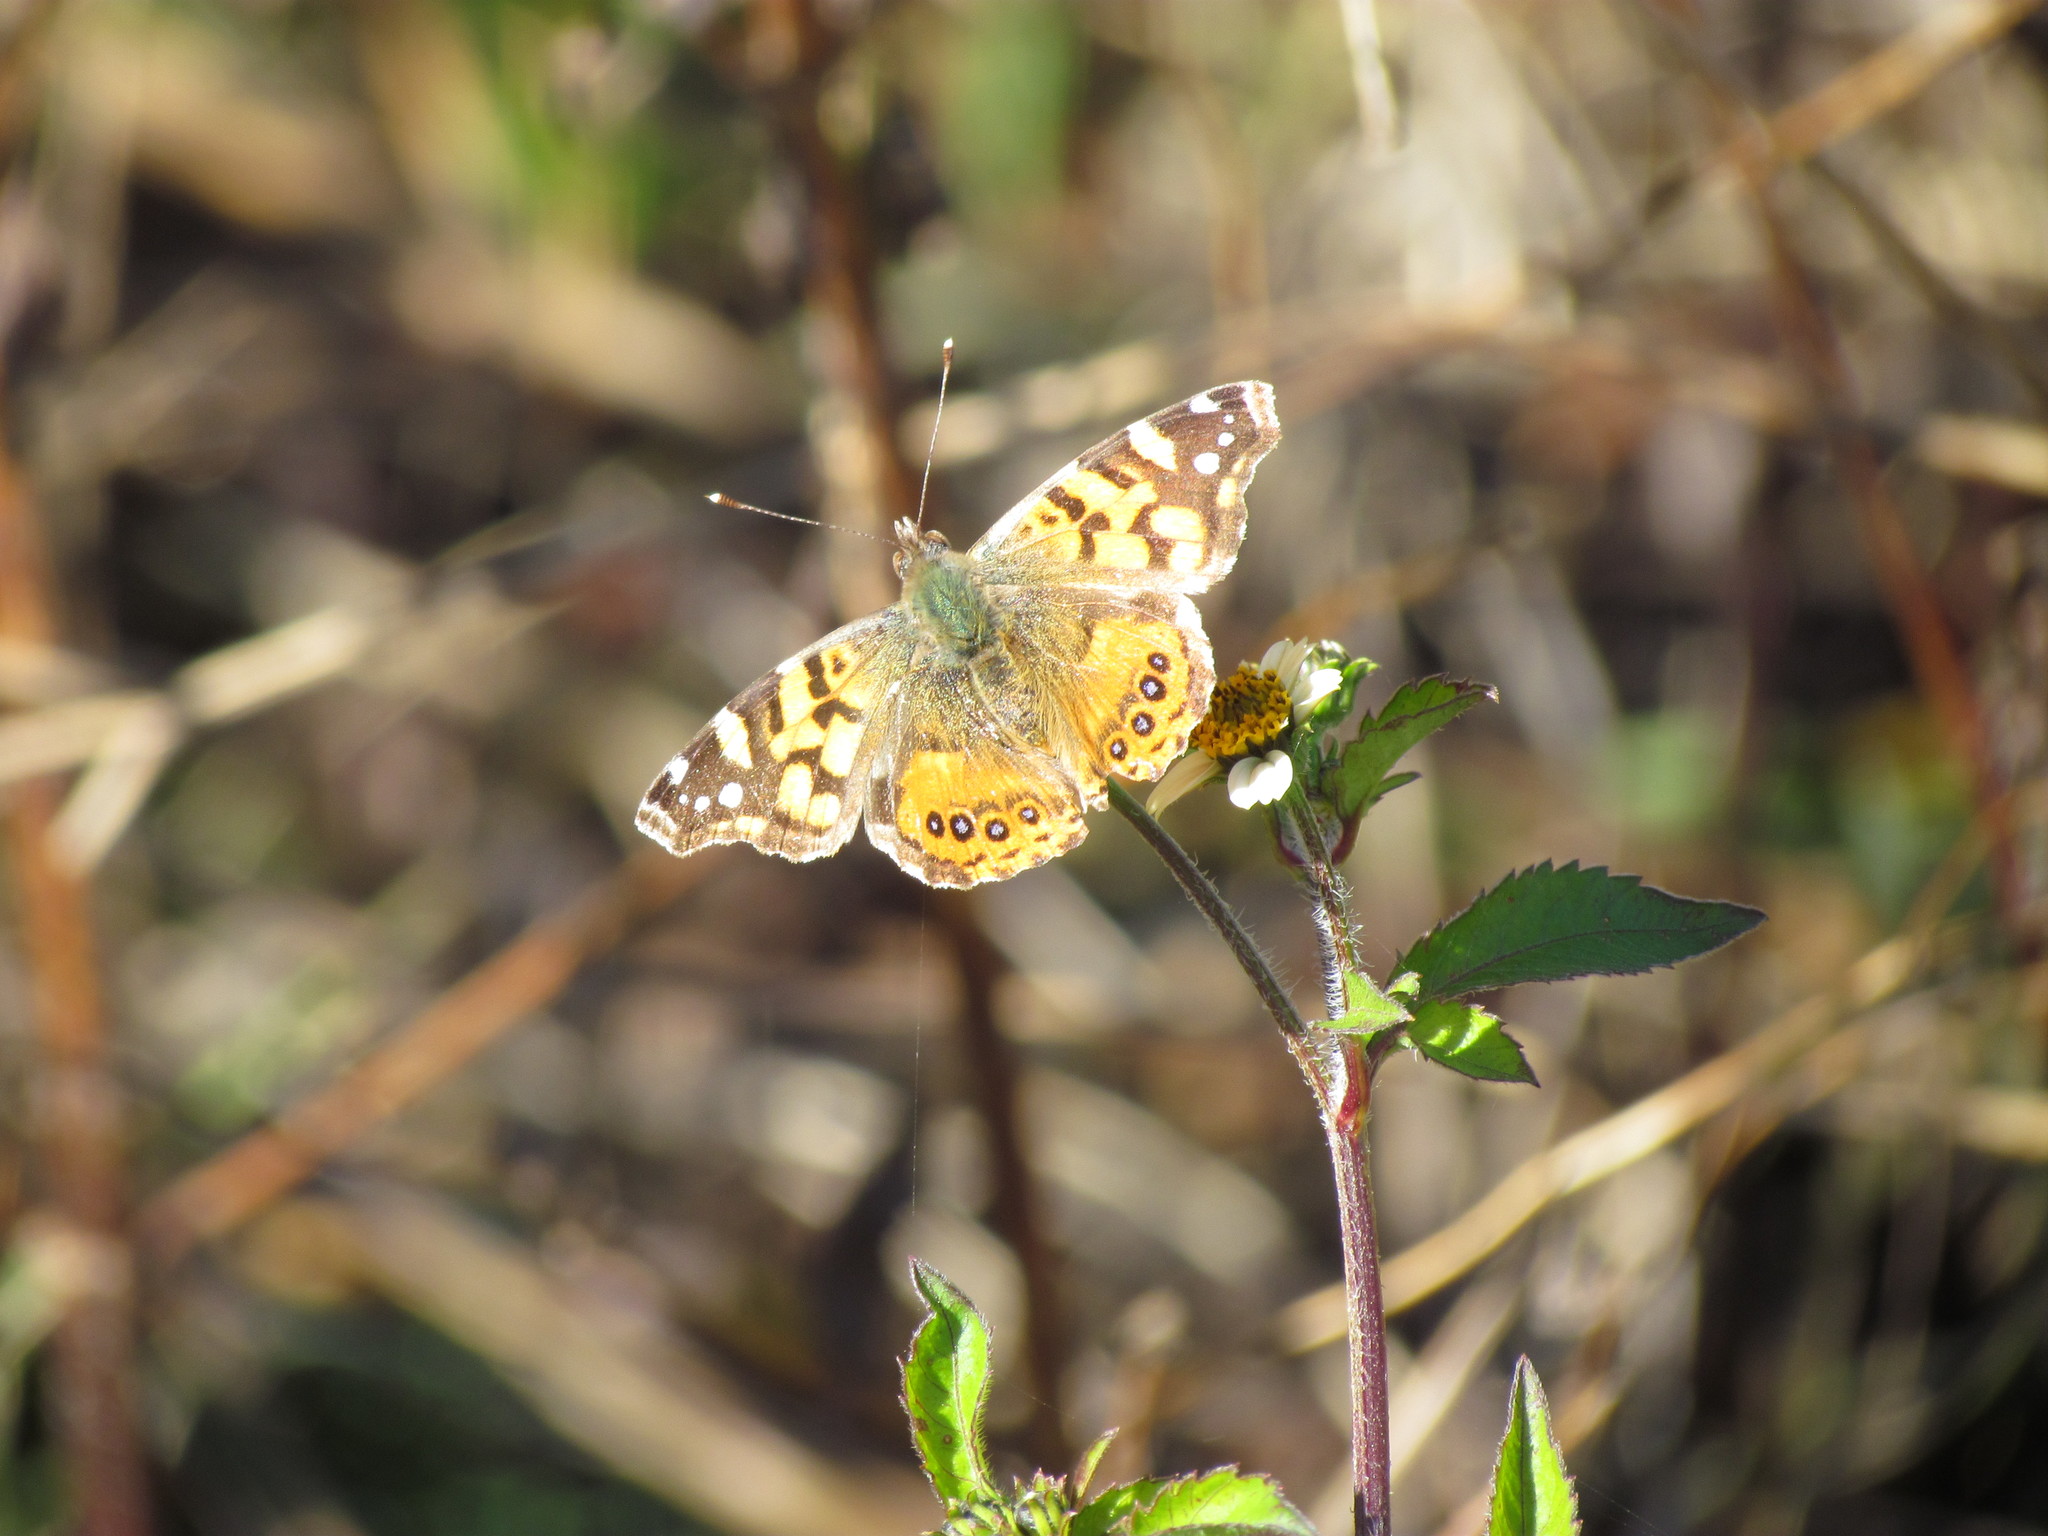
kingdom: Animalia
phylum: Arthropoda
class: Insecta
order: Lepidoptera
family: Nymphalidae
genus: Vanessa
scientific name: Vanessa carye
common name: Subtropical lady
